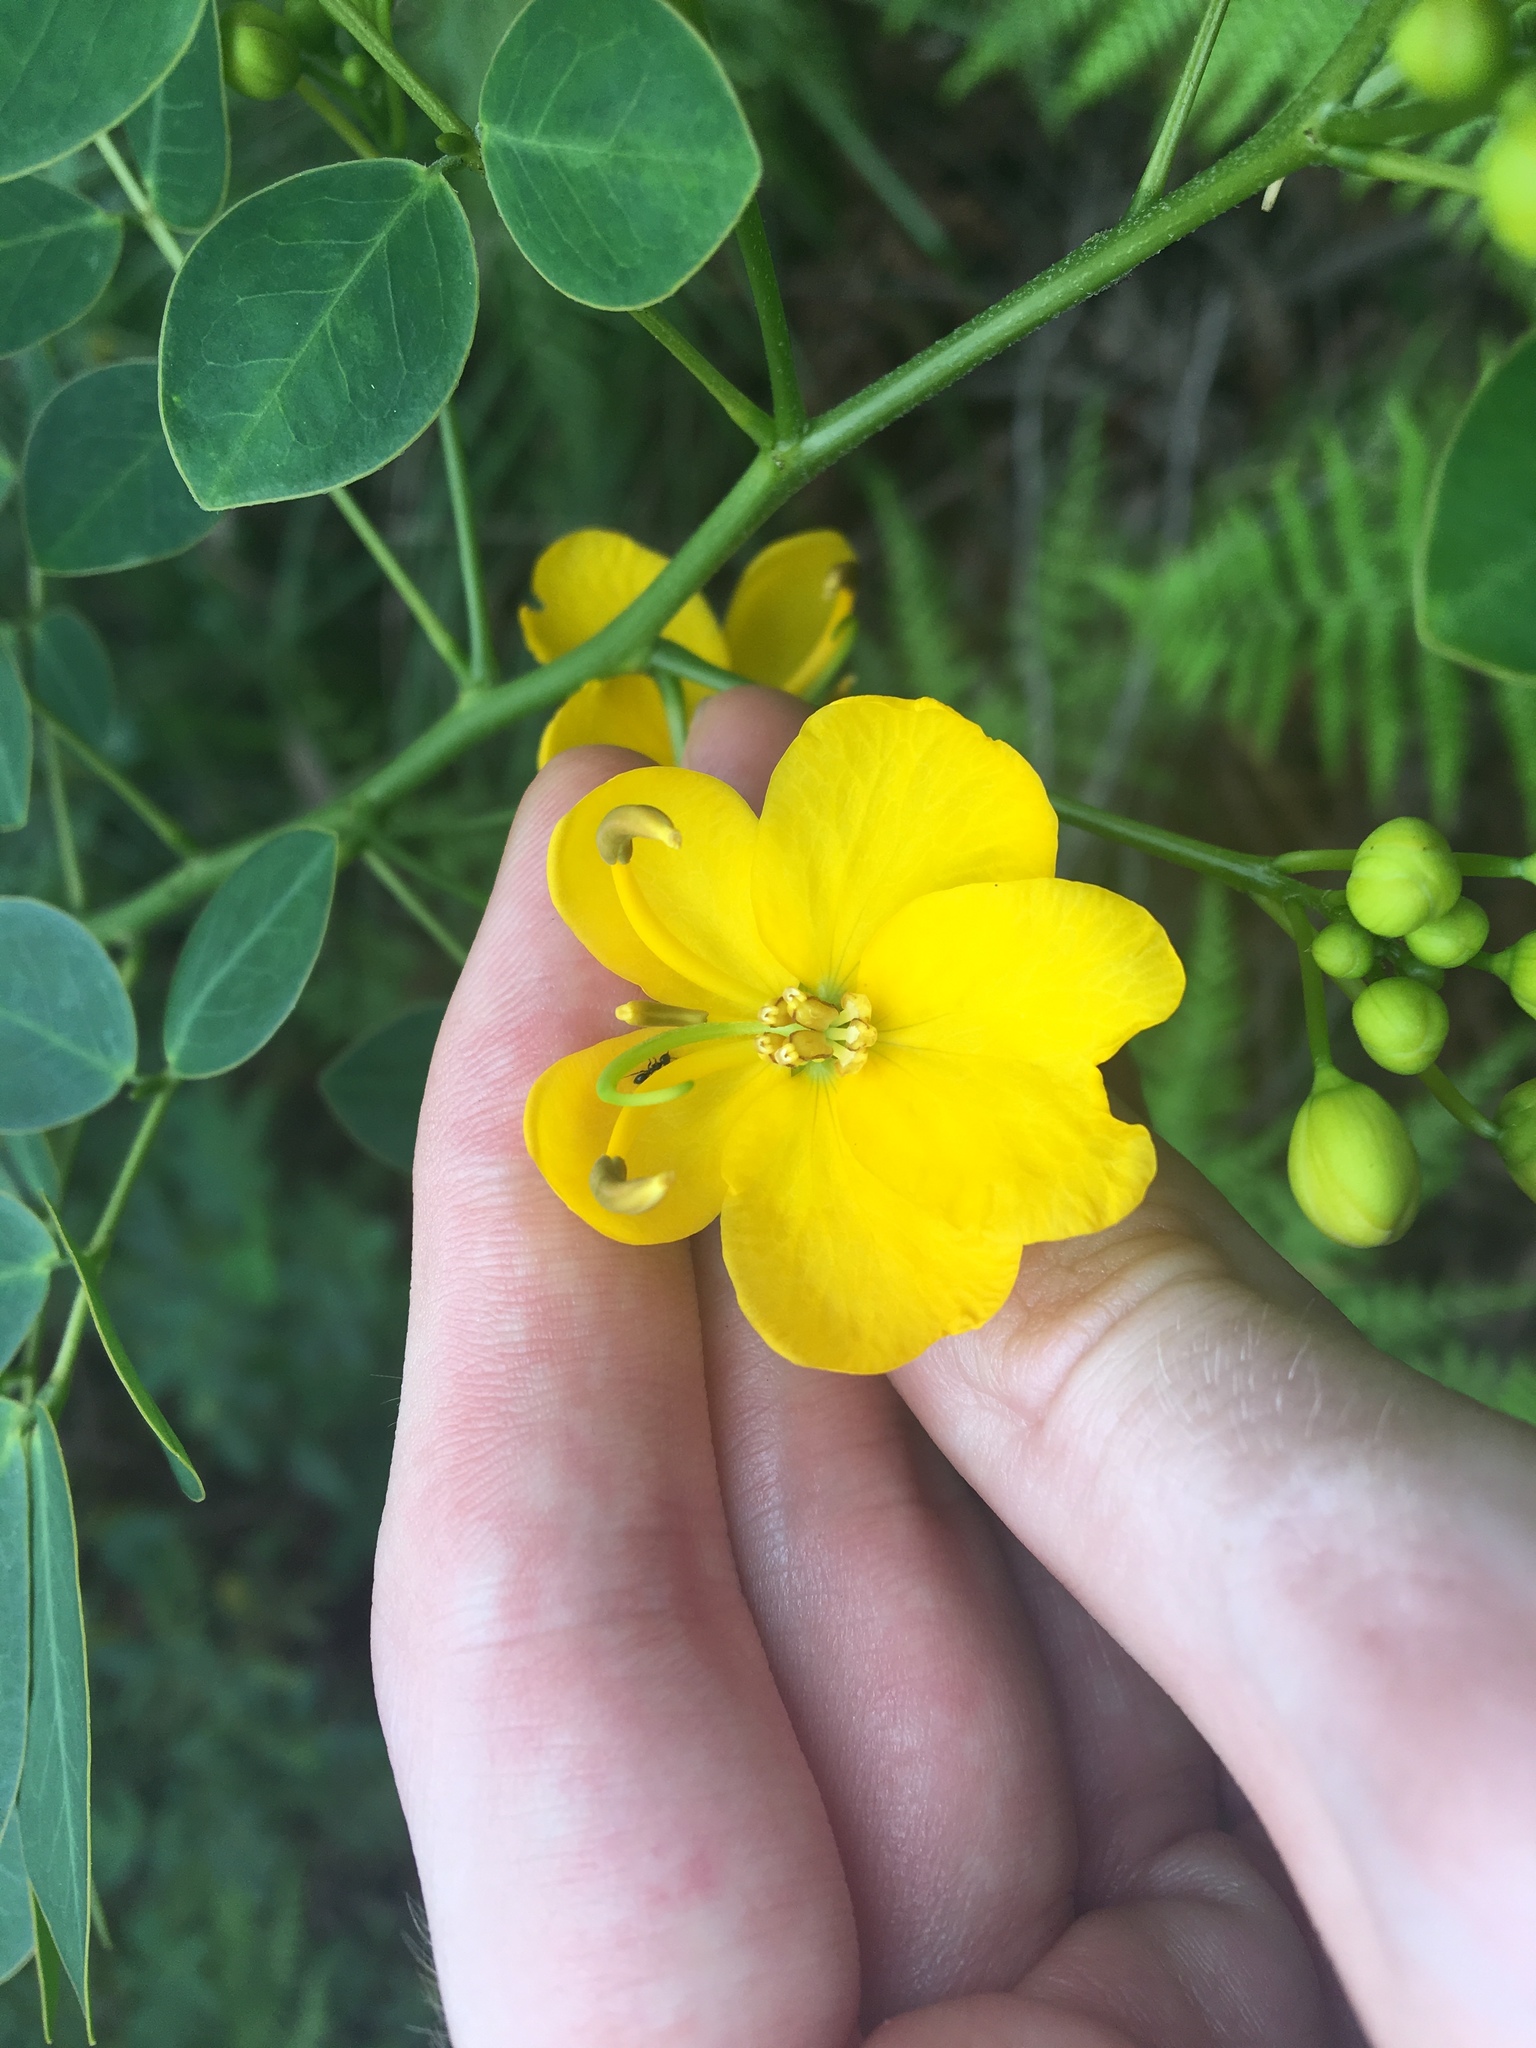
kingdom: Plantae
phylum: Tracheophyta
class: Magnoliopsida
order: Fabales
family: Fabaceae
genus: Senna
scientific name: Senna pendula
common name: Easter cassia
